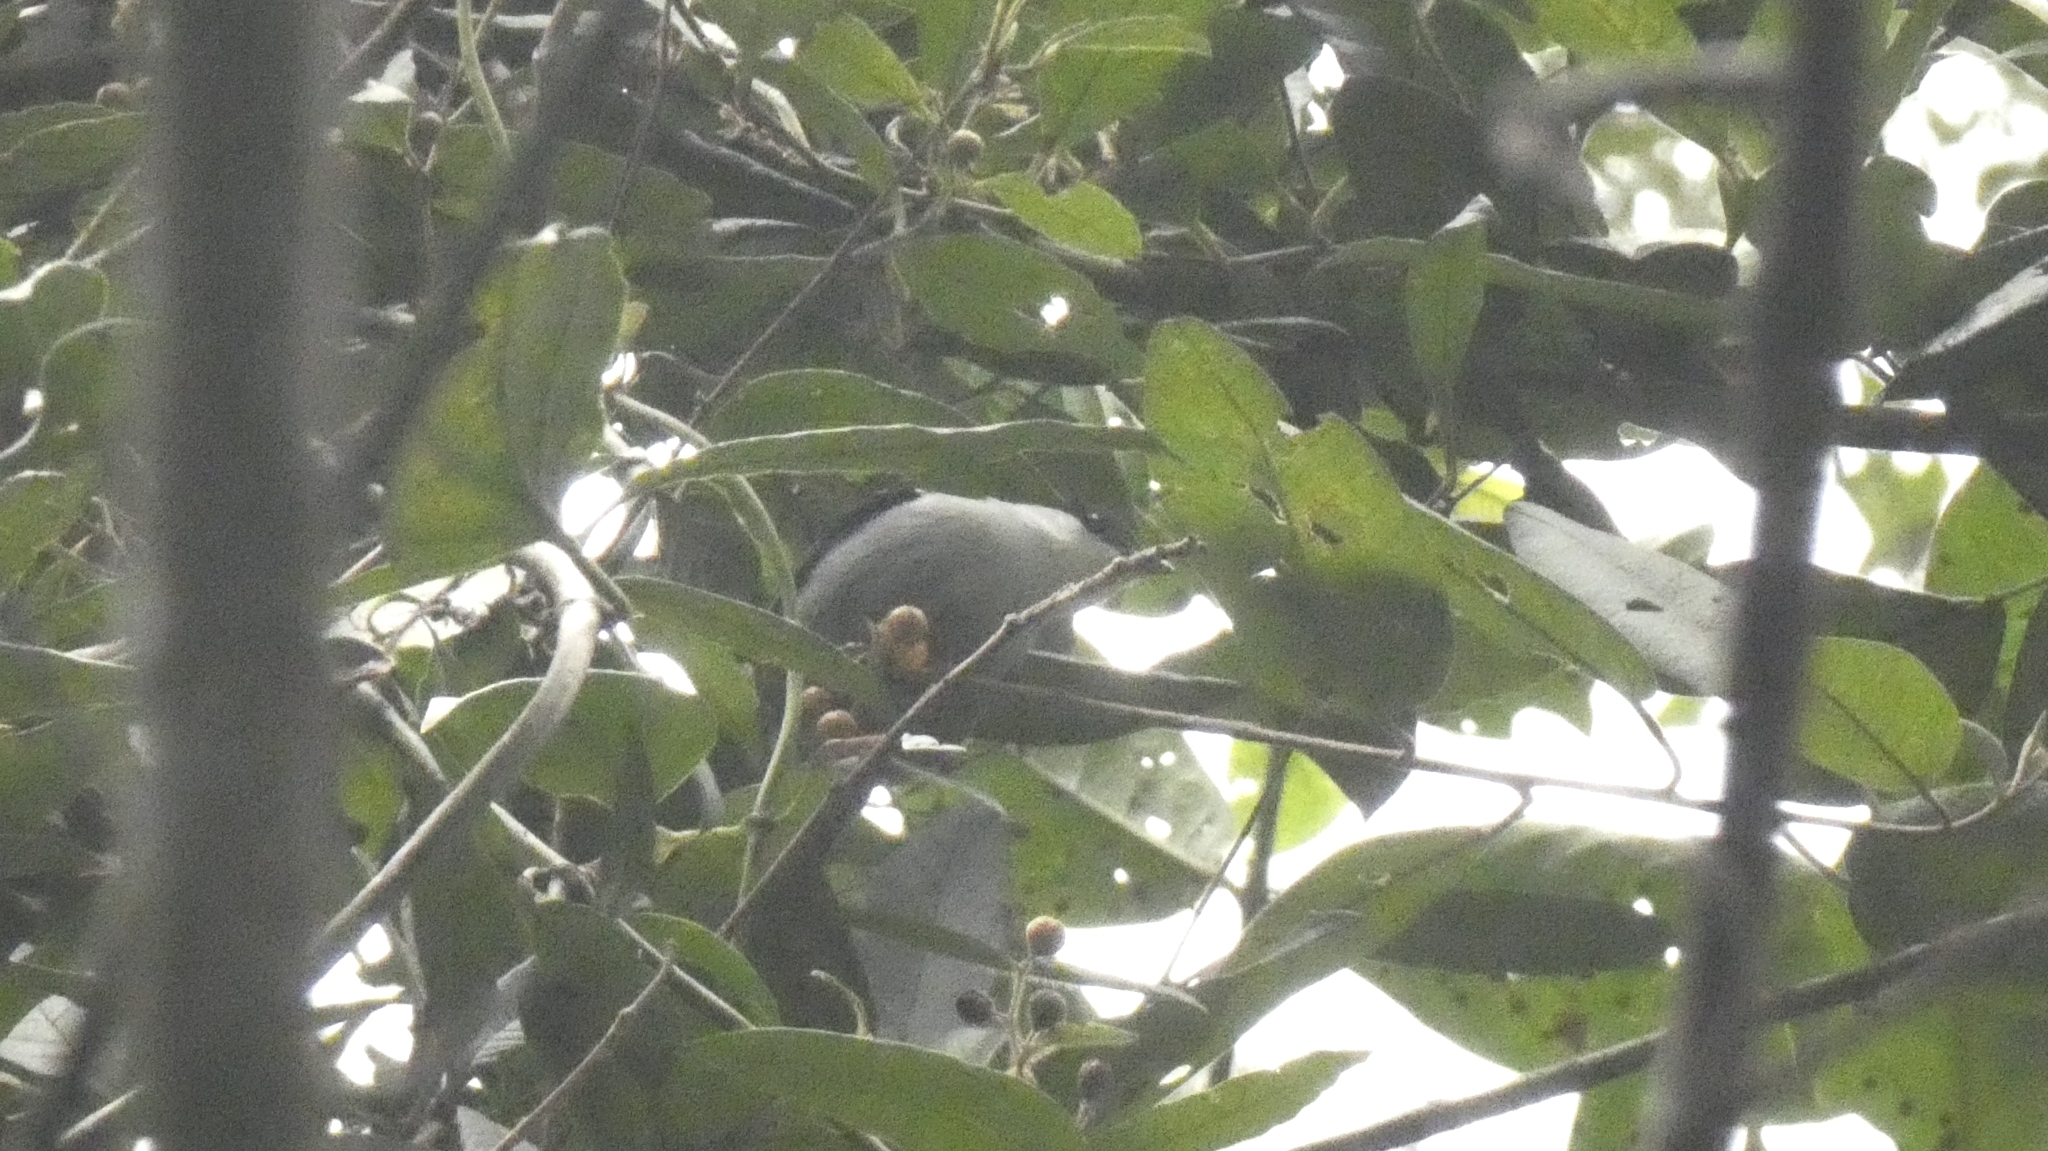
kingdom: Animalia
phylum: Chordata
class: Aves
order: Passeriformes
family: Pipridae
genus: Manacus
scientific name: Manacus manacus
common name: White-bearded manakin
